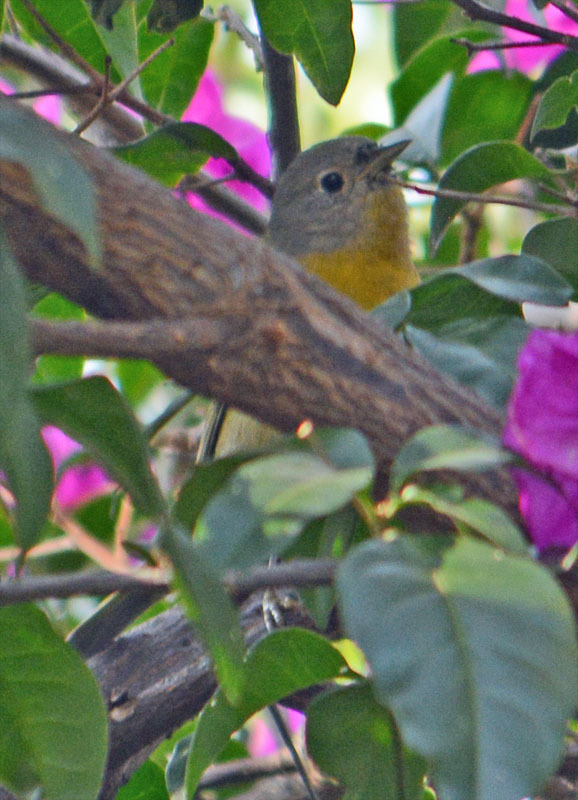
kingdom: Animalia
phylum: Chordata
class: Aves
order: Passeriformes
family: Parulidae
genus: Leiothlypis
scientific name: Leiothlypis ruficapilla
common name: Nashville warbler
